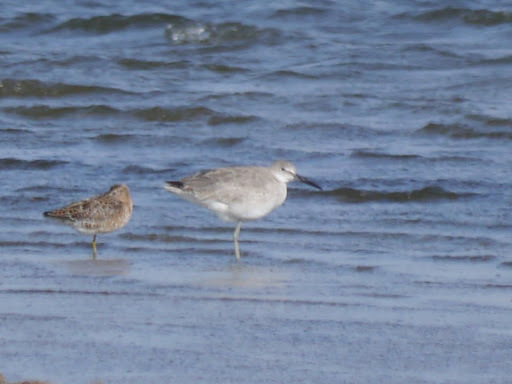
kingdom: Animalia
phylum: Chordata
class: Aves
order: Charadriiformes
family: Scolopacidae
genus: Tringa
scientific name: Tringa semipalmata
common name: Willet
